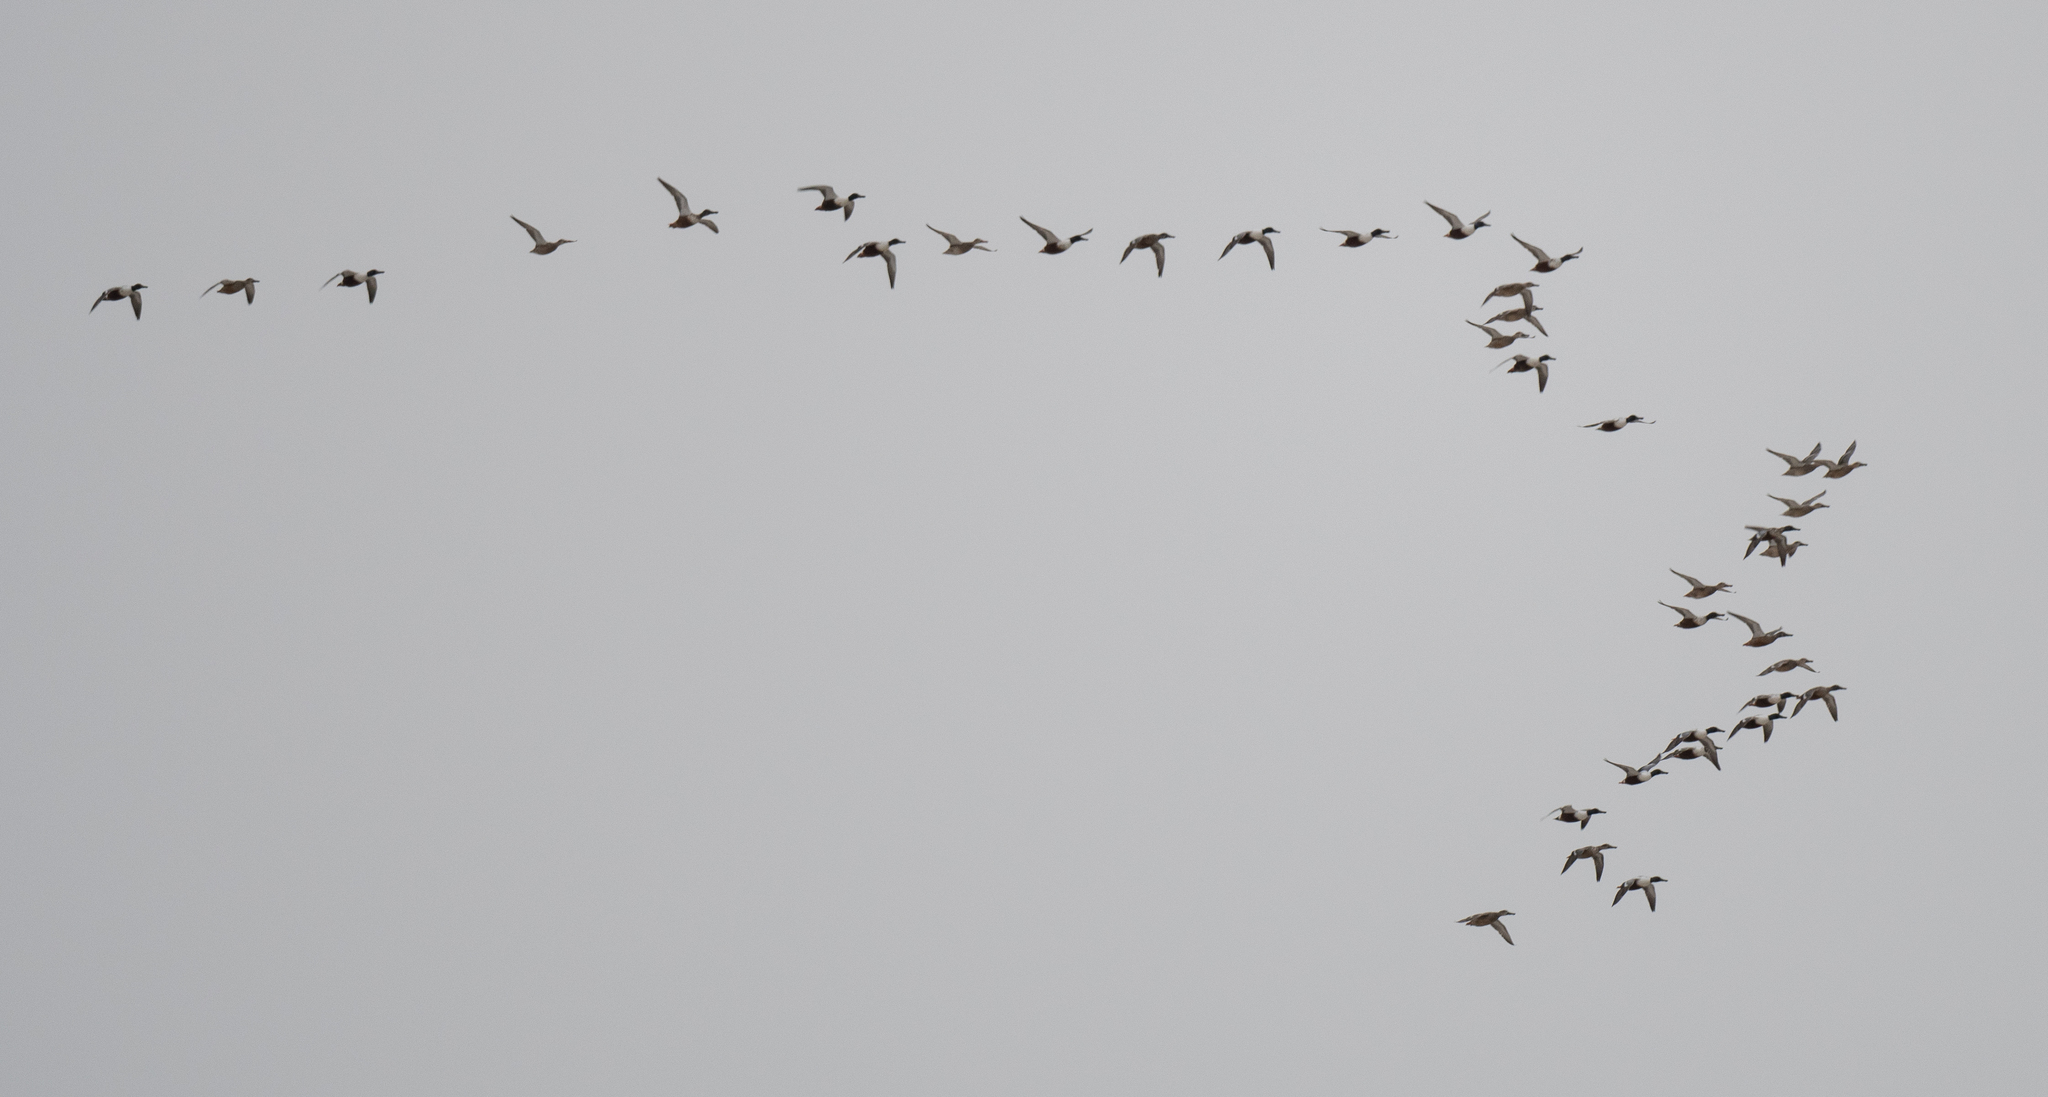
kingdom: Animalia
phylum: Chordata
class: Aves
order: Anseriformes
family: Anatidae
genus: Spatula
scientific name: Spatula clypeata
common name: Northern shoveler
